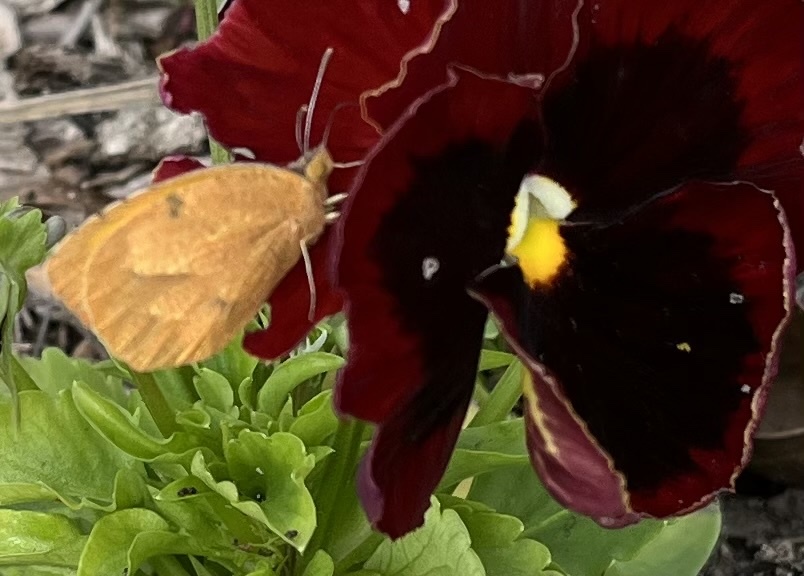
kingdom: Animalia
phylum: Arthropoda
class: Insecta
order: Lepidoptera
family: Pieridae
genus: Abaeis
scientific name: Abaeis nicippe
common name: Sleepy orange
